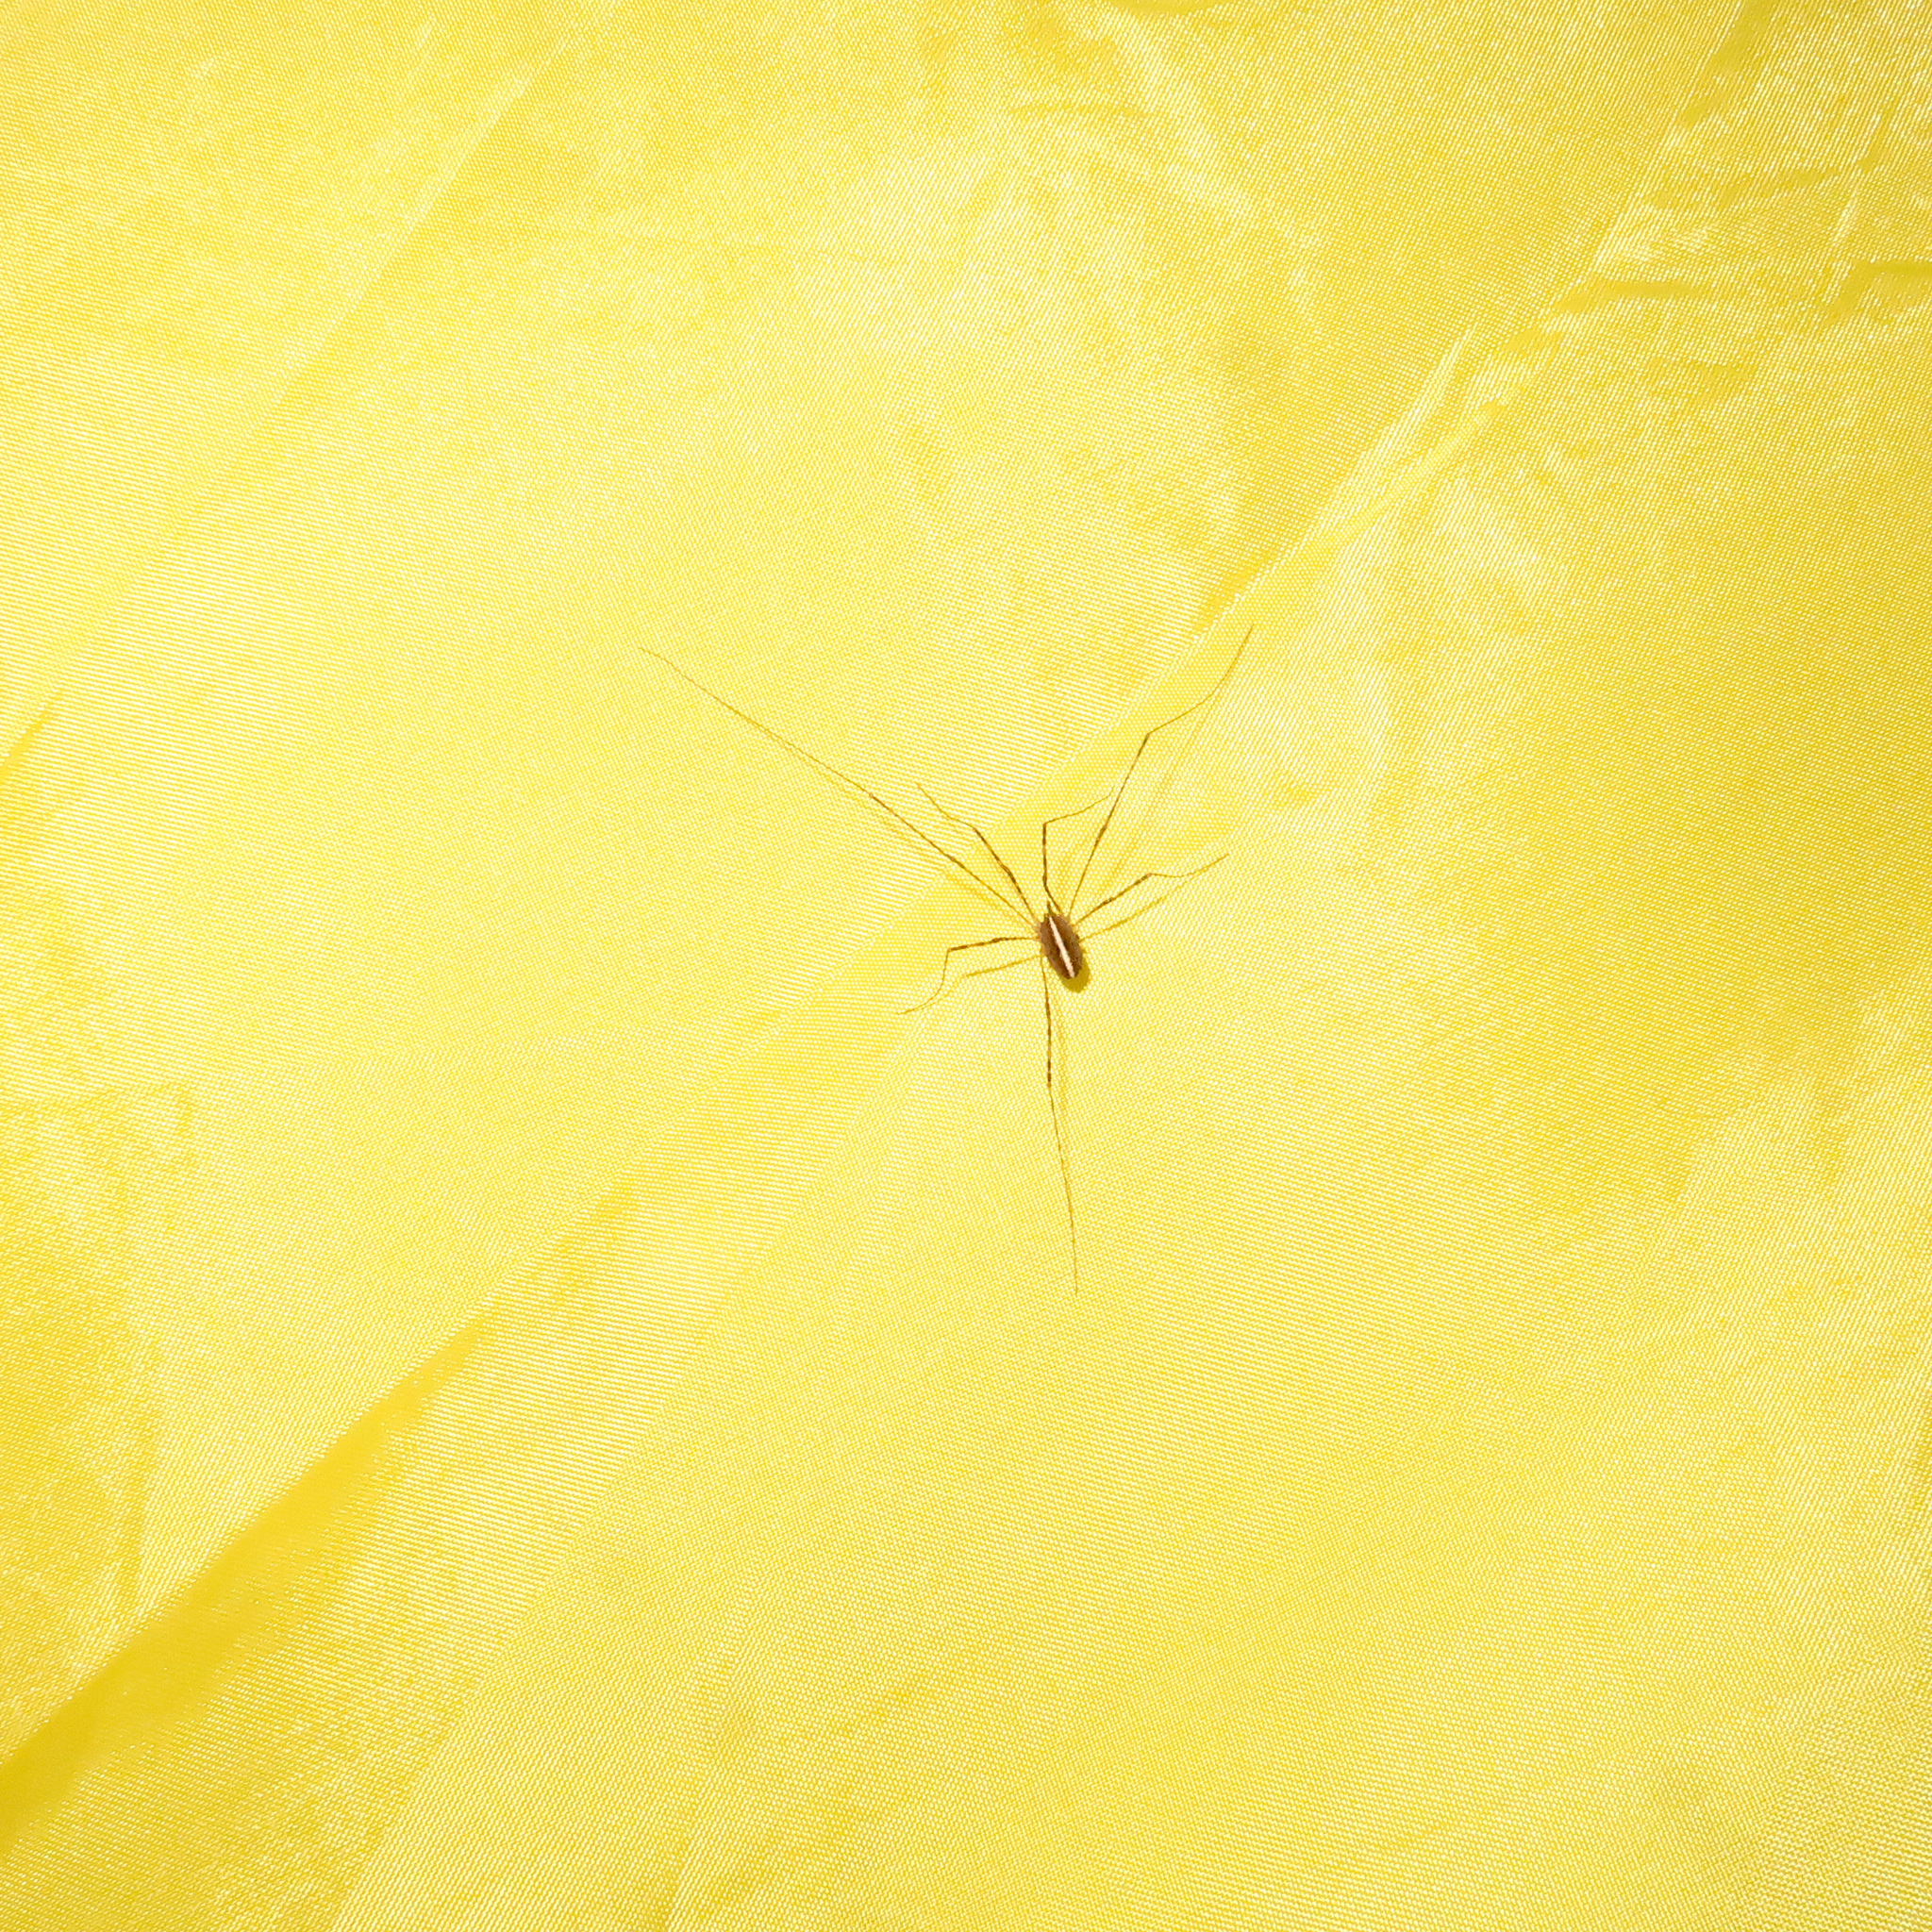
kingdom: Animalia
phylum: Arthropoda
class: Arachnida
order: Opiliones
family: Neopilionidae
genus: Megalopsalis
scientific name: Megalopsalis tasmanica
